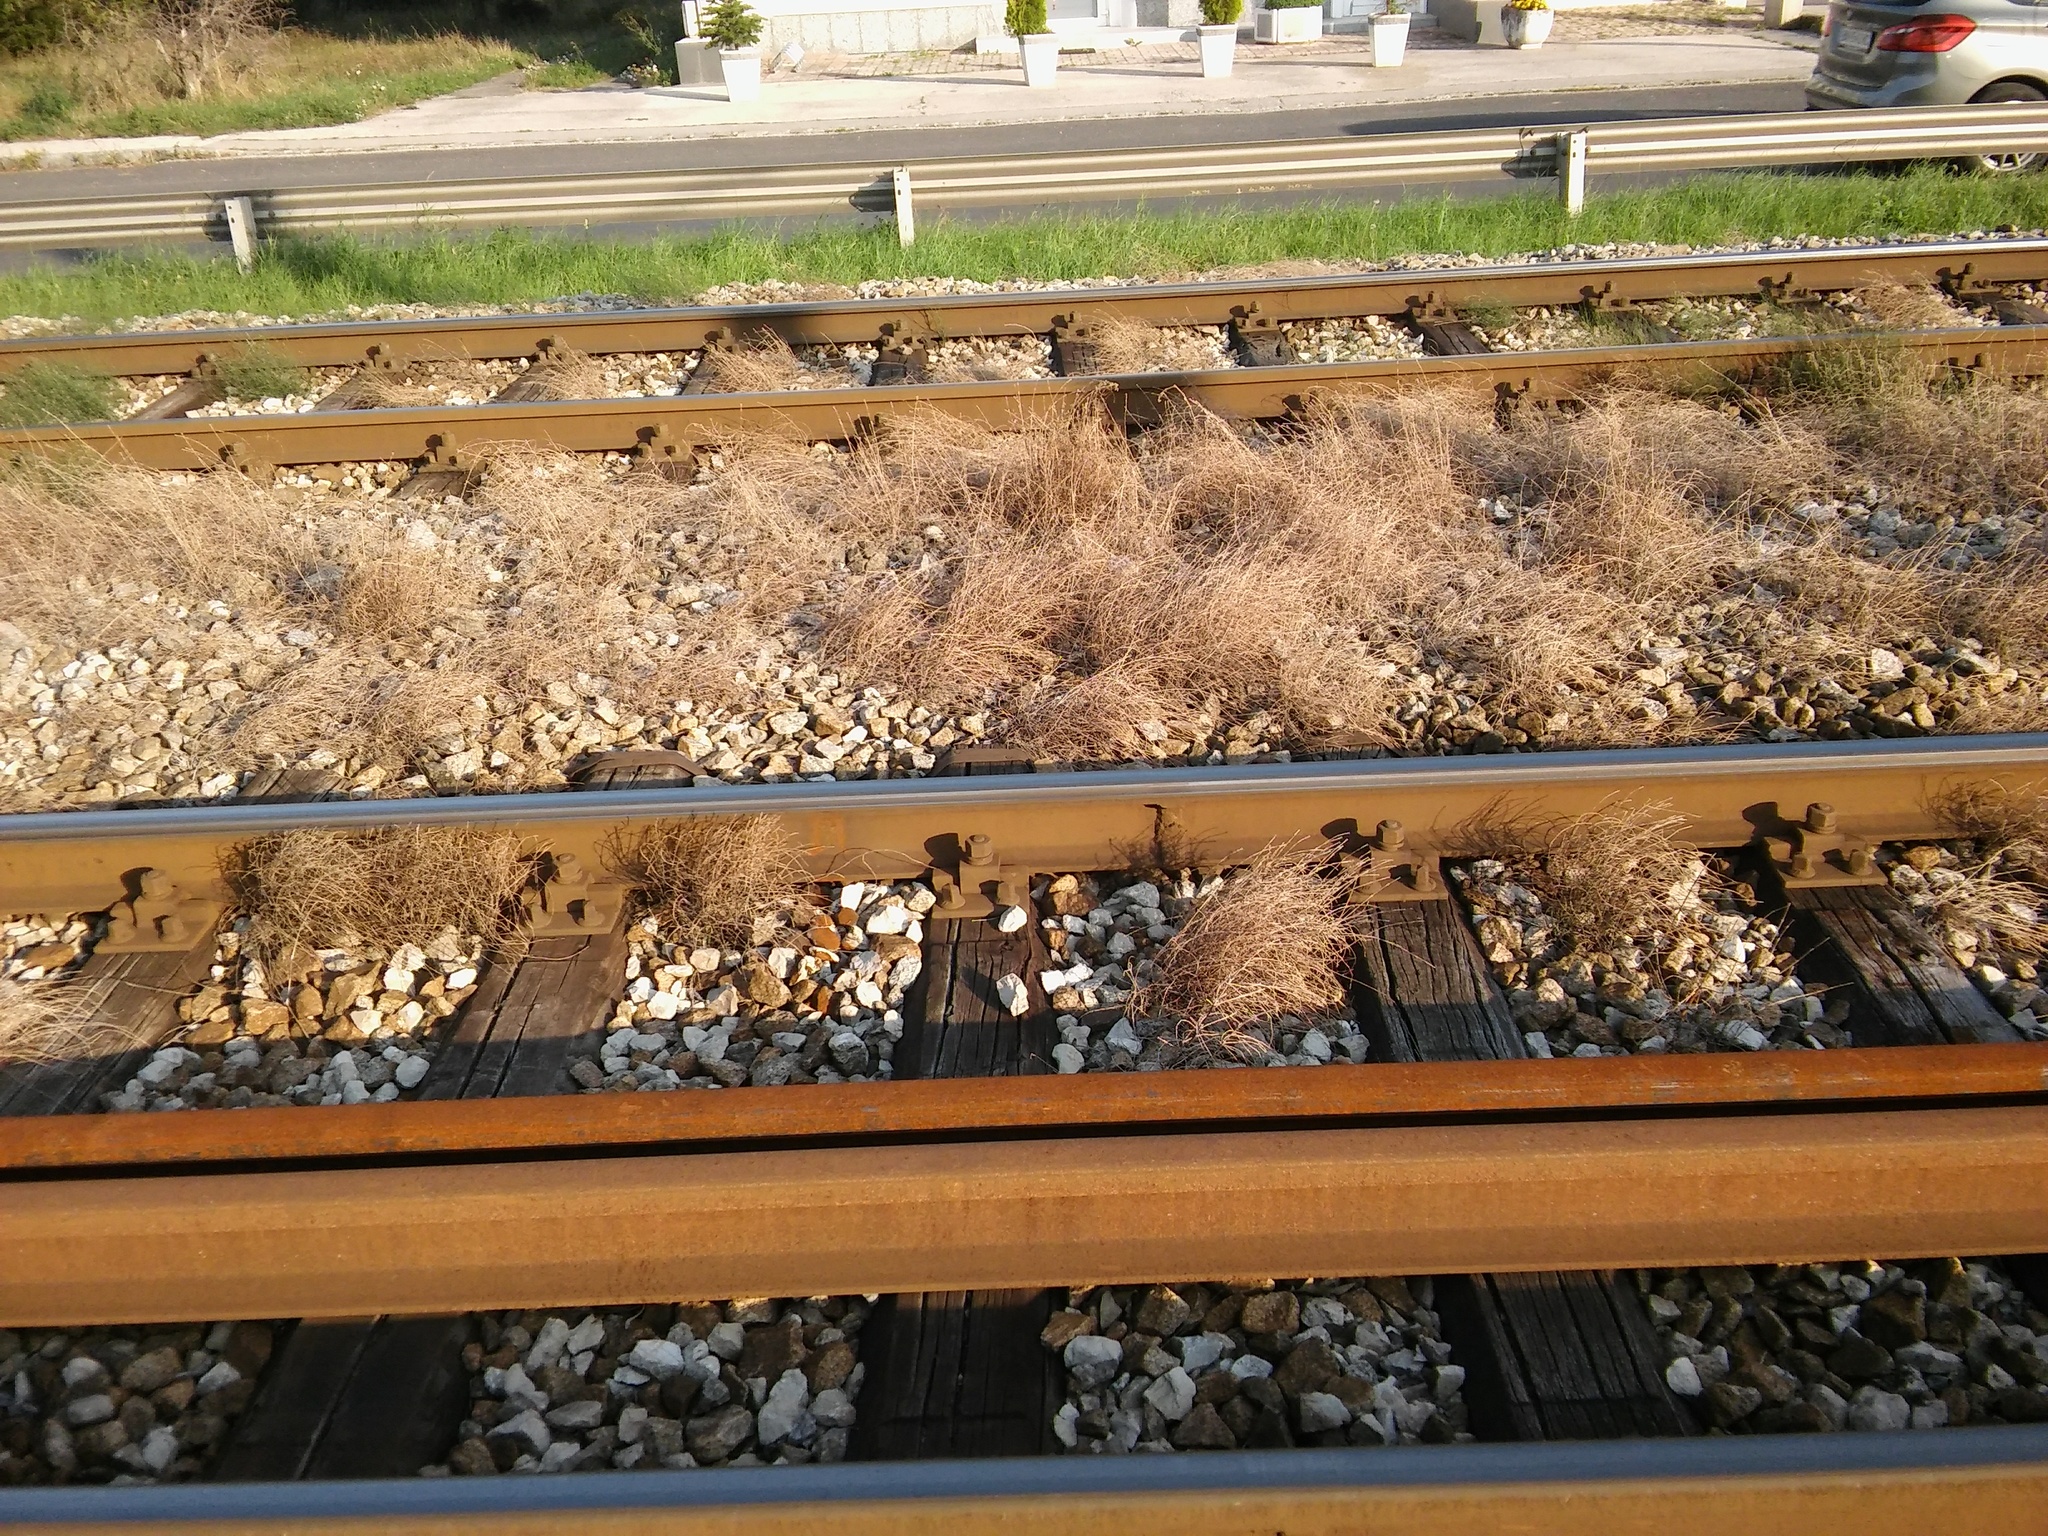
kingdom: Plantae
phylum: Tracheophyta
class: Polypodiopsida
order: Equisetales
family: Equisetaceae
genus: Equisetum
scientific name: Equisetum ramosissimum
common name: Branched horsetail
